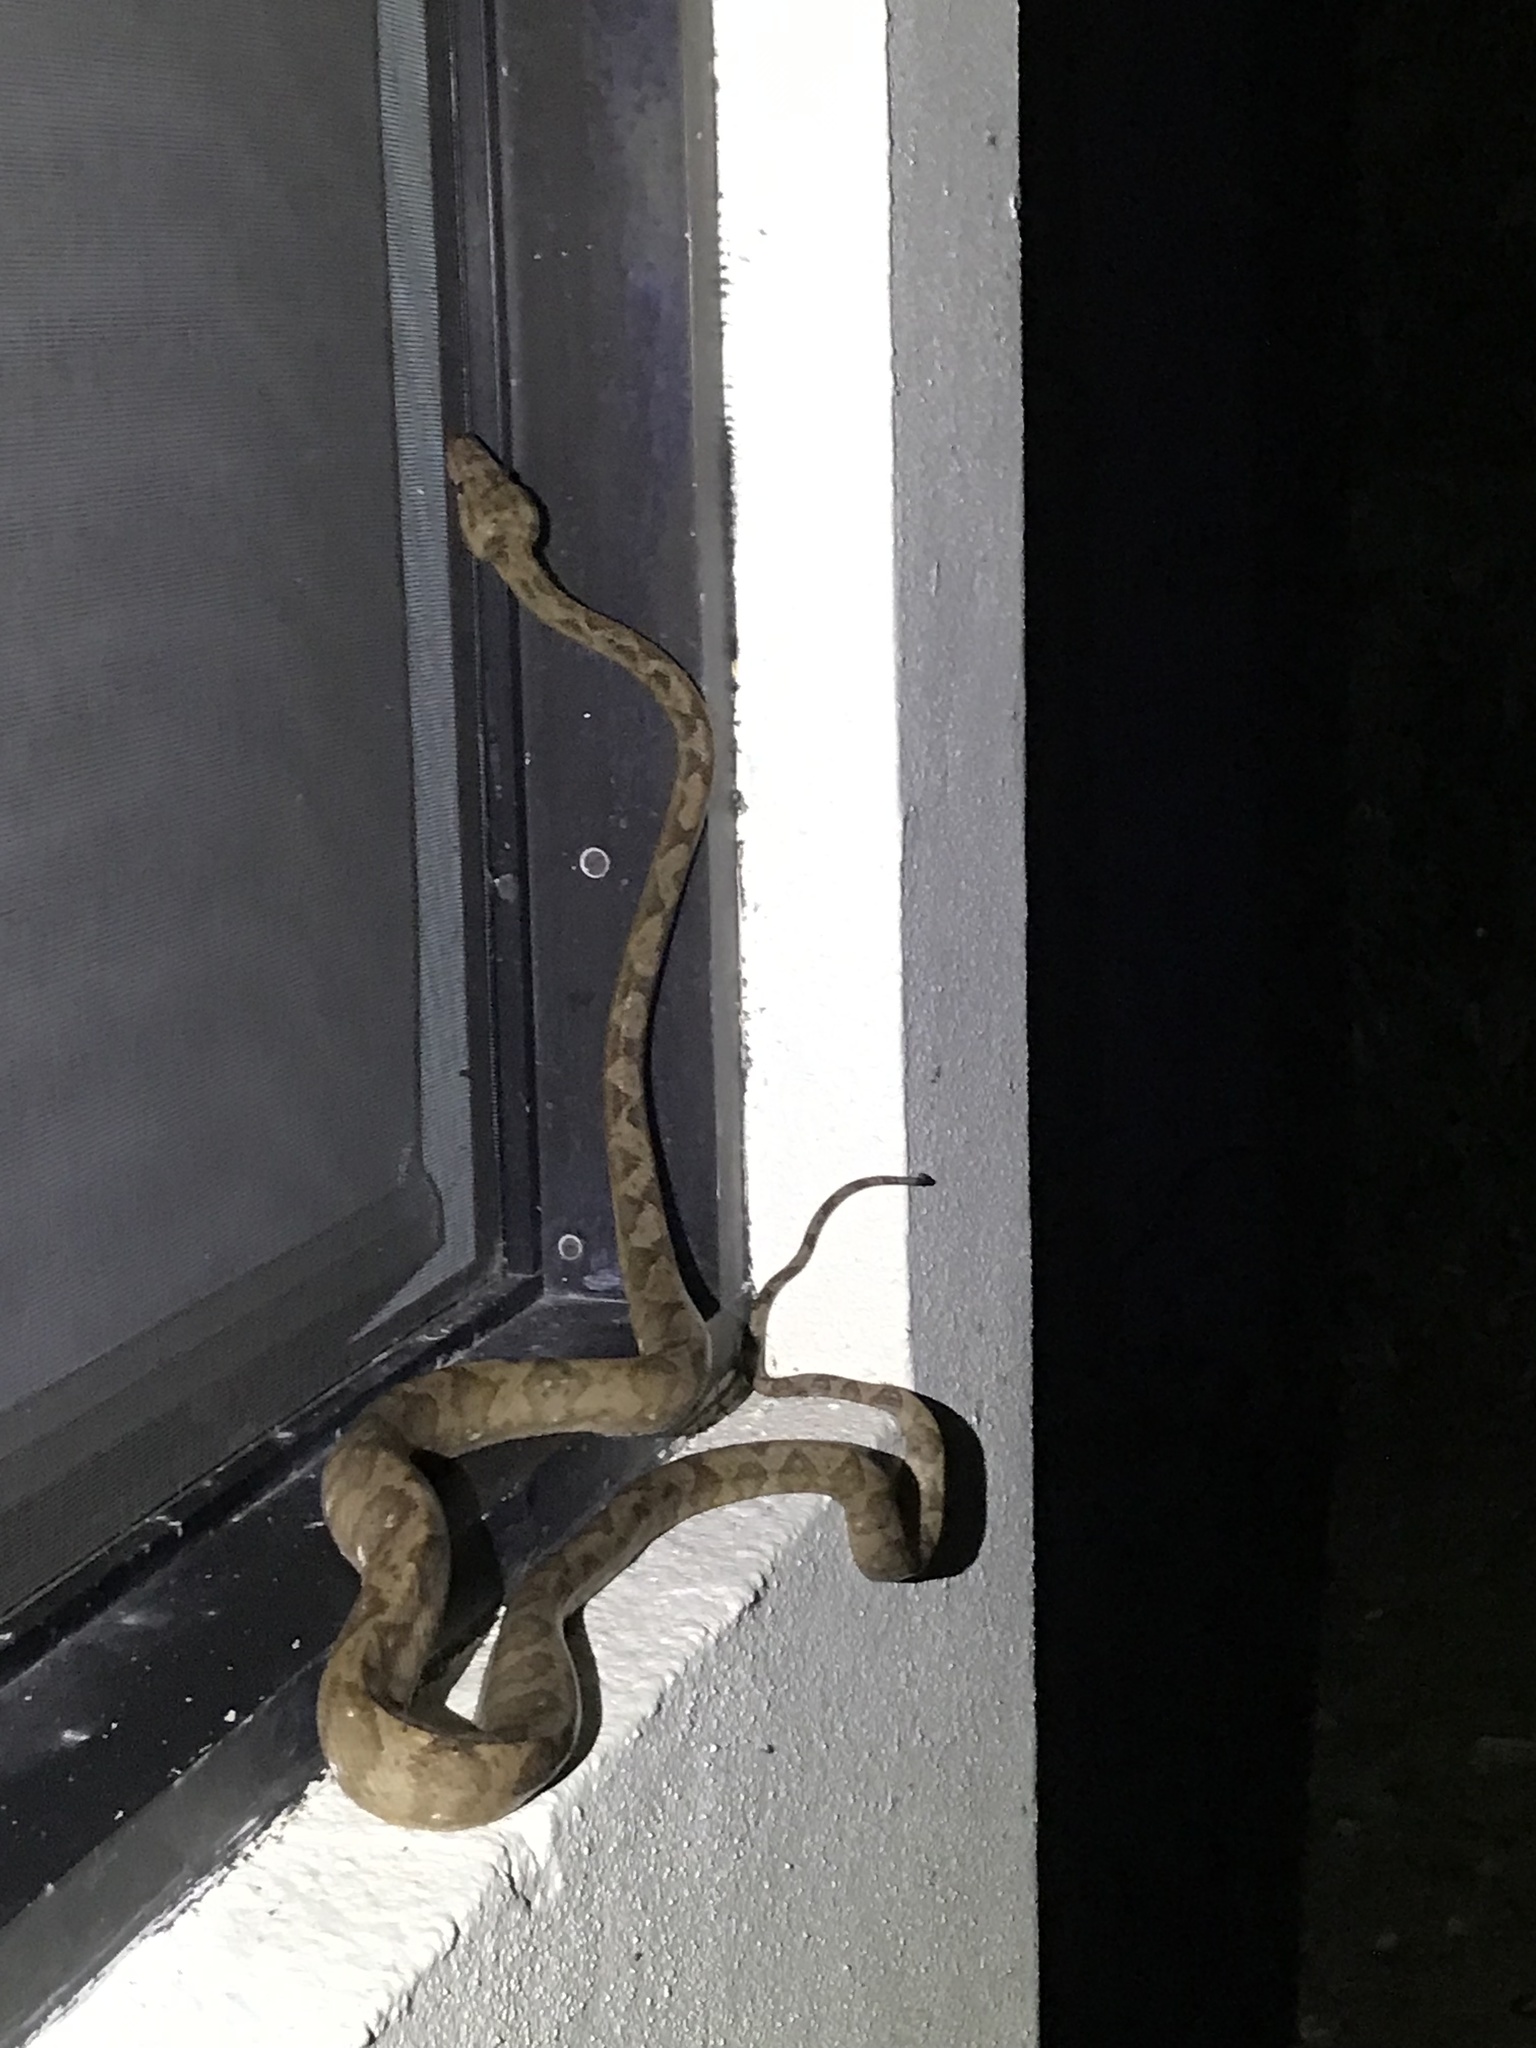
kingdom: Animalia
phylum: Chordata
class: Squamata
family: Boidae
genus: Corallus
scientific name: Corallus annulatus
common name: Ringed tree boa
